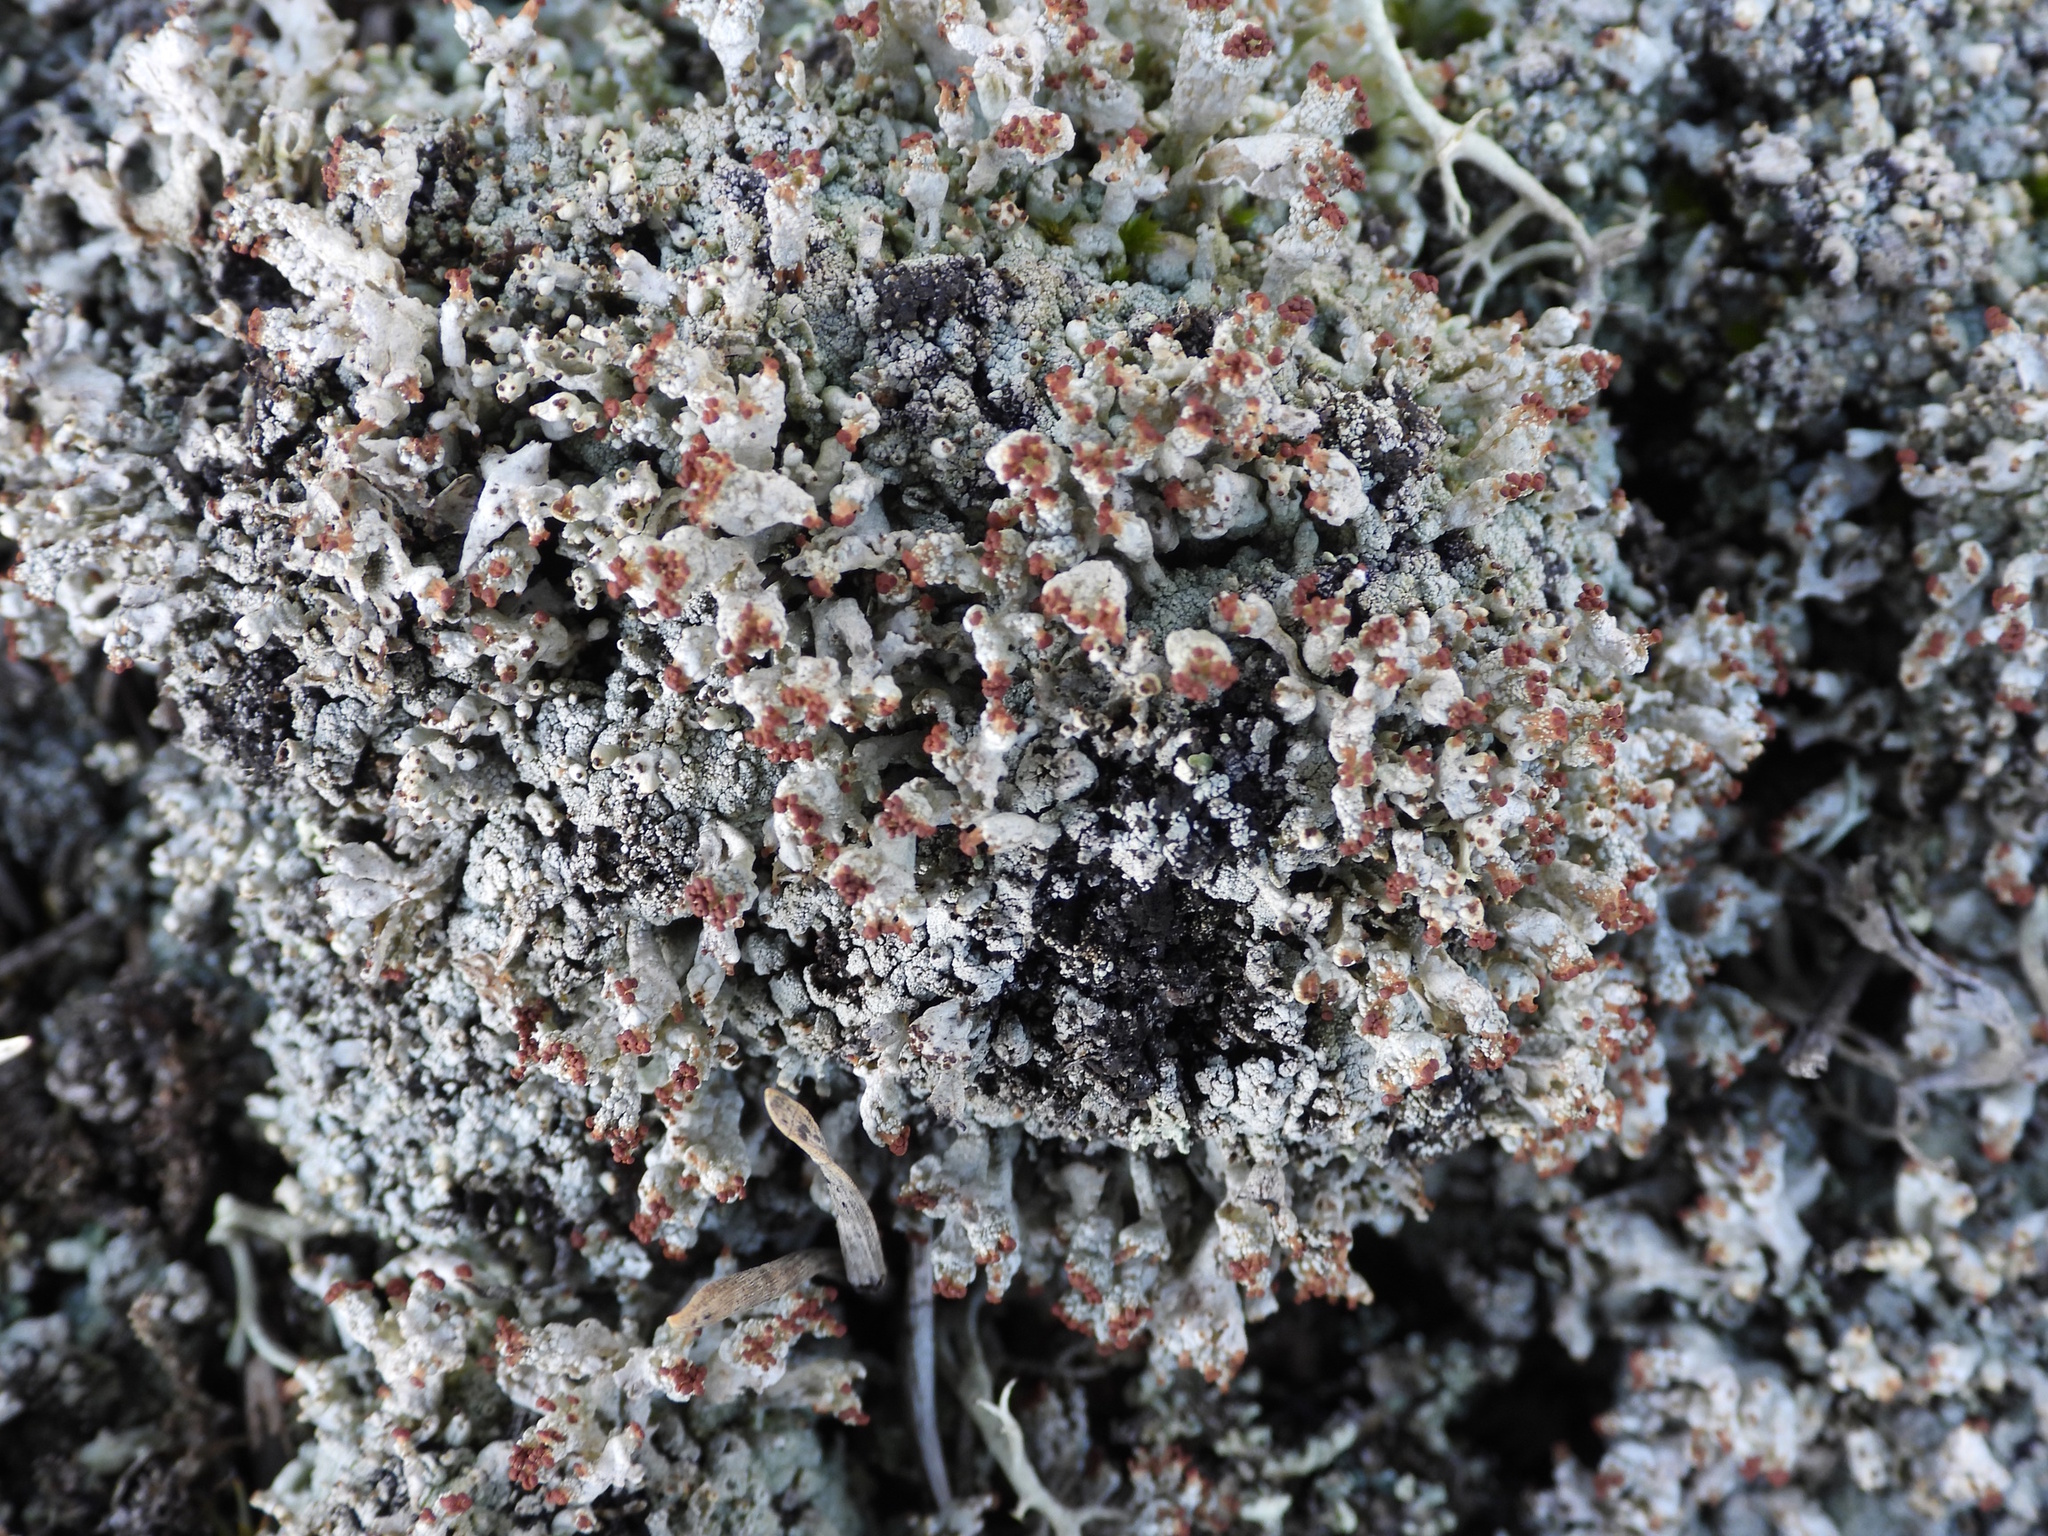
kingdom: Fungi
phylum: Ascomycota
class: Lecanoromycetes
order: Lecanorales
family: Cladoniaceae
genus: Pycnothelia
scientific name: Pycnothelia papillaria
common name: Nipple lichen
